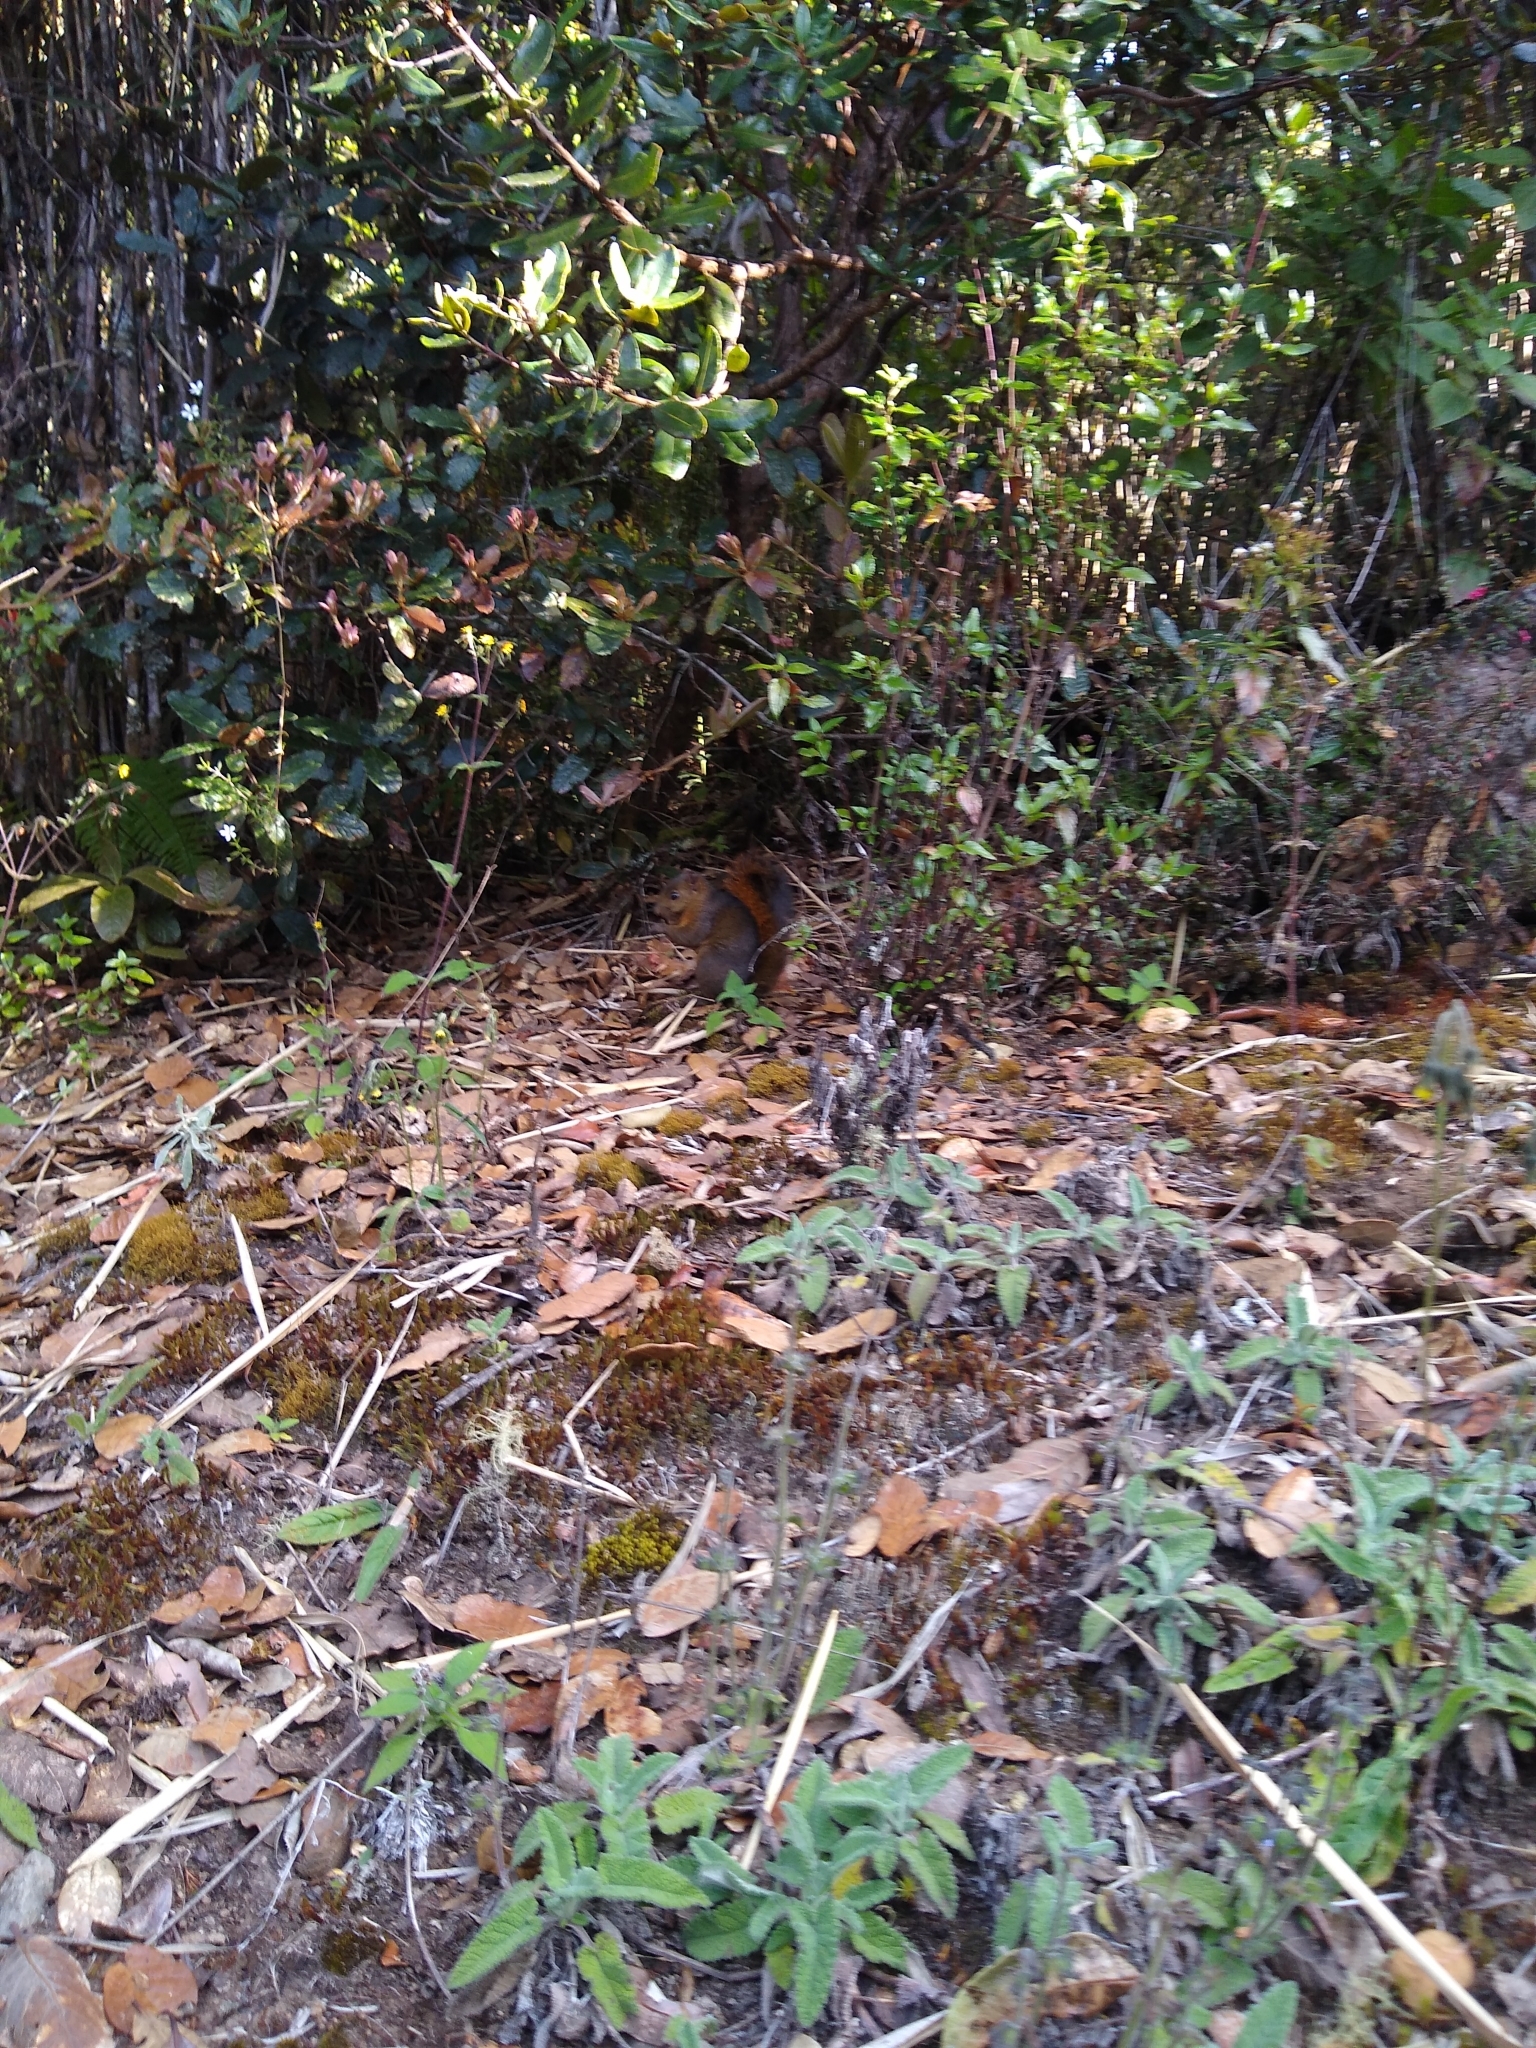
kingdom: Animalia
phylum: Chordata
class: Mammalia
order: Rodentia
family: Sciuridae
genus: Sciurus
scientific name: Sciurus granatensis
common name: Red-tailed squirrel
